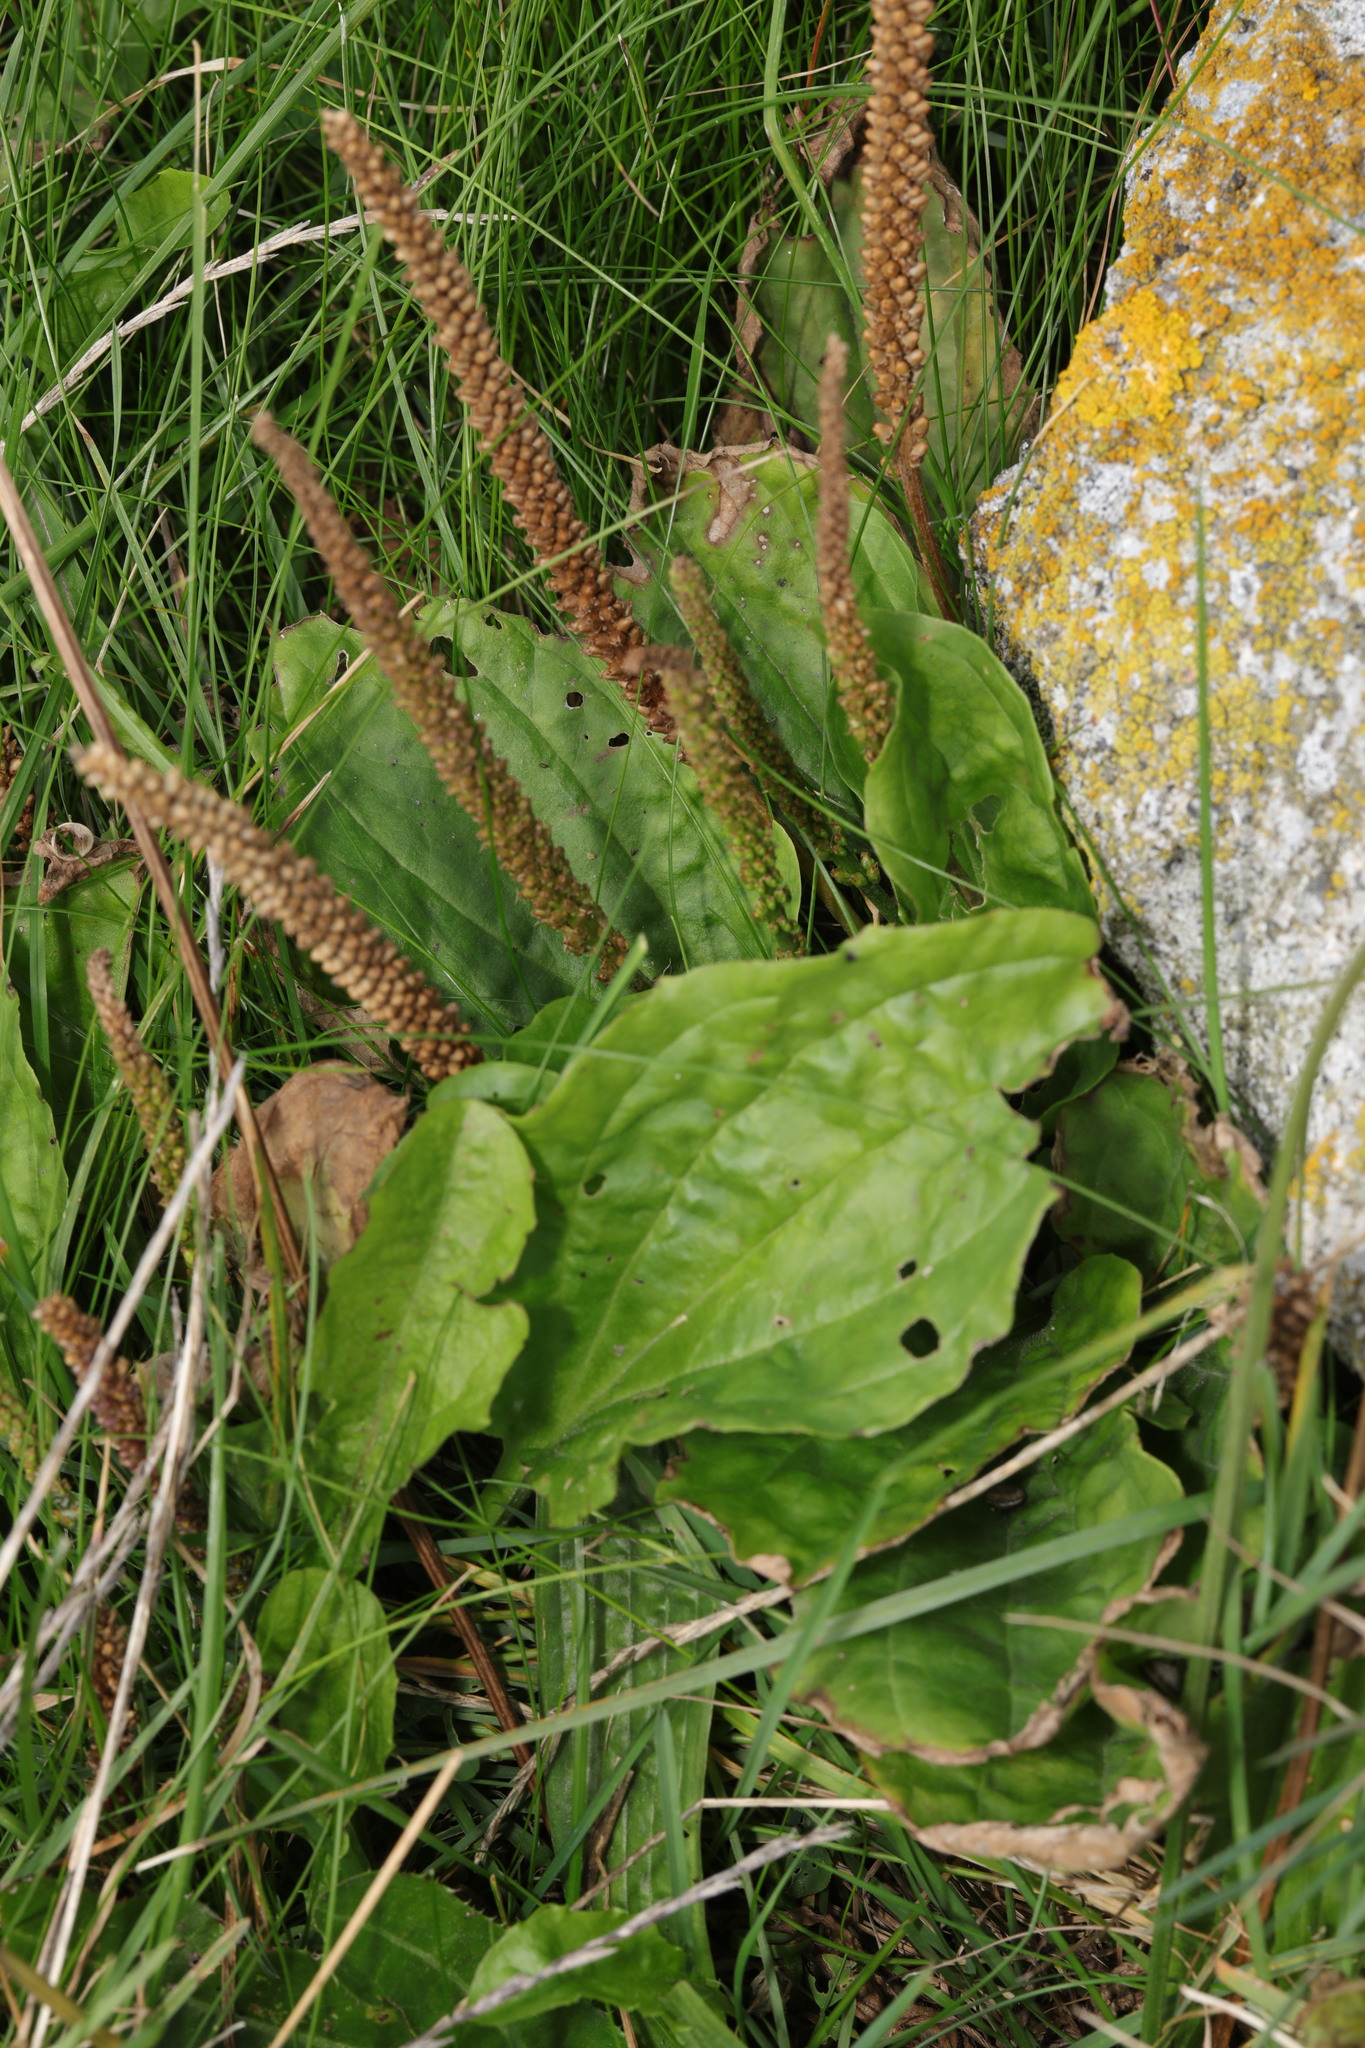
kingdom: Plantae
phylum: Tracheophyta
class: Magnoliopsida
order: Lamiales
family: Plantaginaceae
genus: Plantago
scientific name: Plantago major
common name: Common plantain
